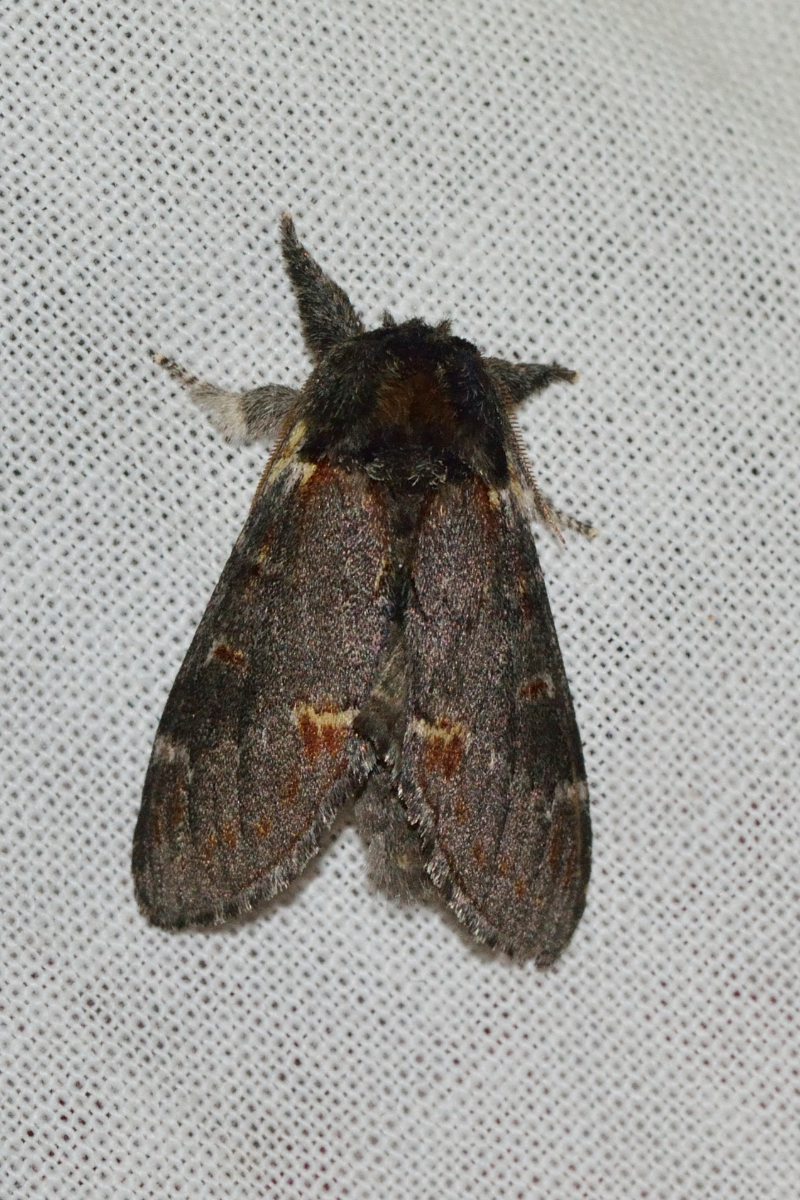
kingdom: Animalia
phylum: Arthropoda
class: Insecta
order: Lepidoptera
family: Notodontidae
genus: Notodonta
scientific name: Notodonta dromedarius
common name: Iron prominent
